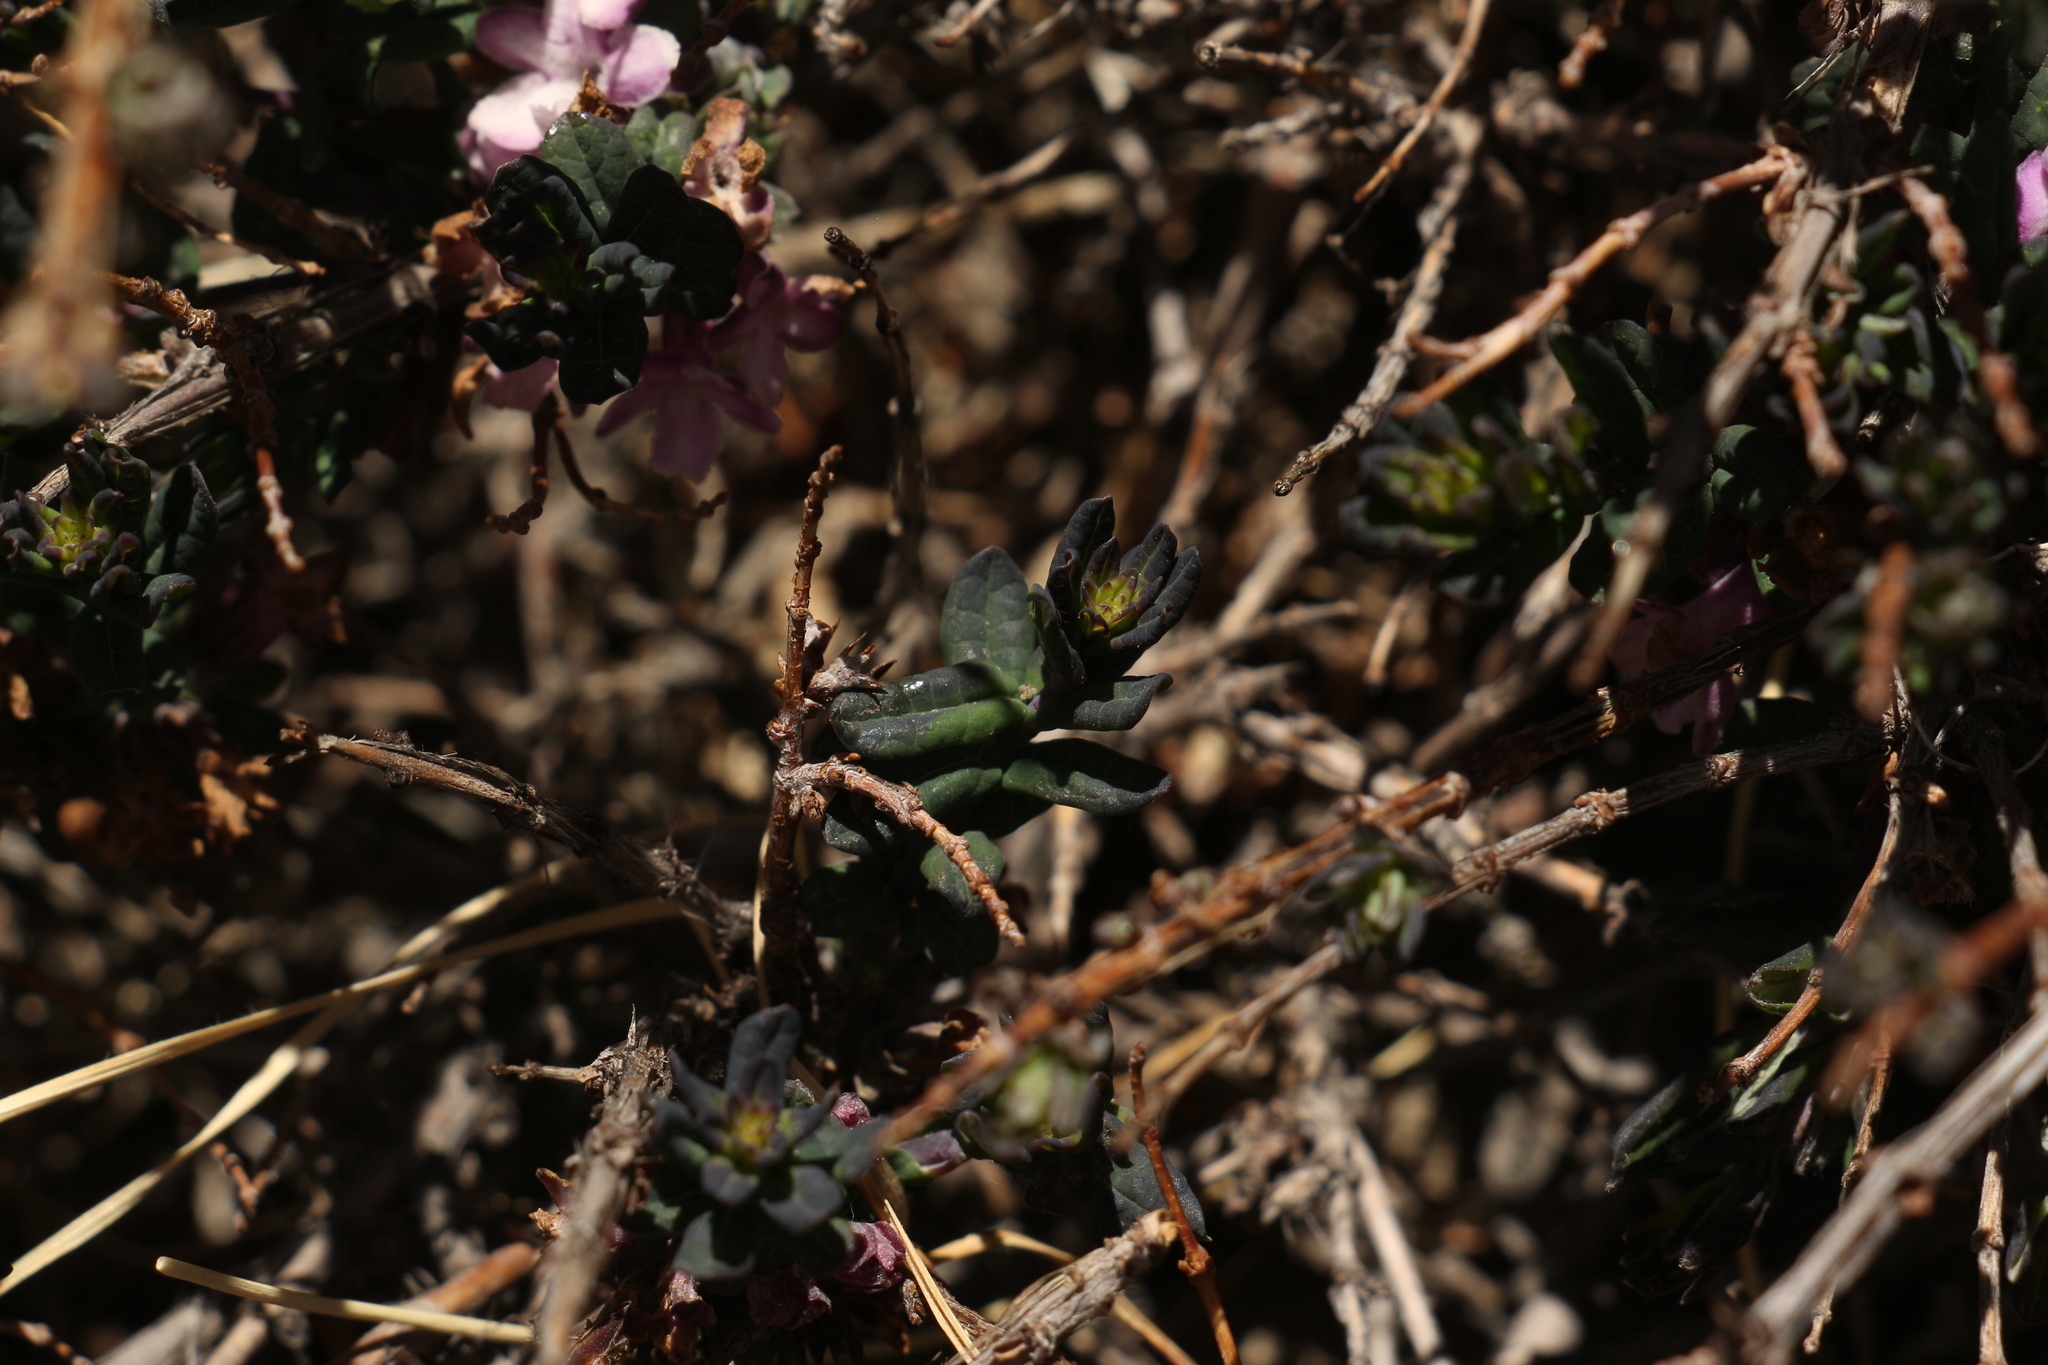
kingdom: Plantae
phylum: Tracheophyta
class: Magnoliopsida
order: Dipsacales
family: Caprifoliaceae
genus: Lonicera
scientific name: Lonicera rupicola
